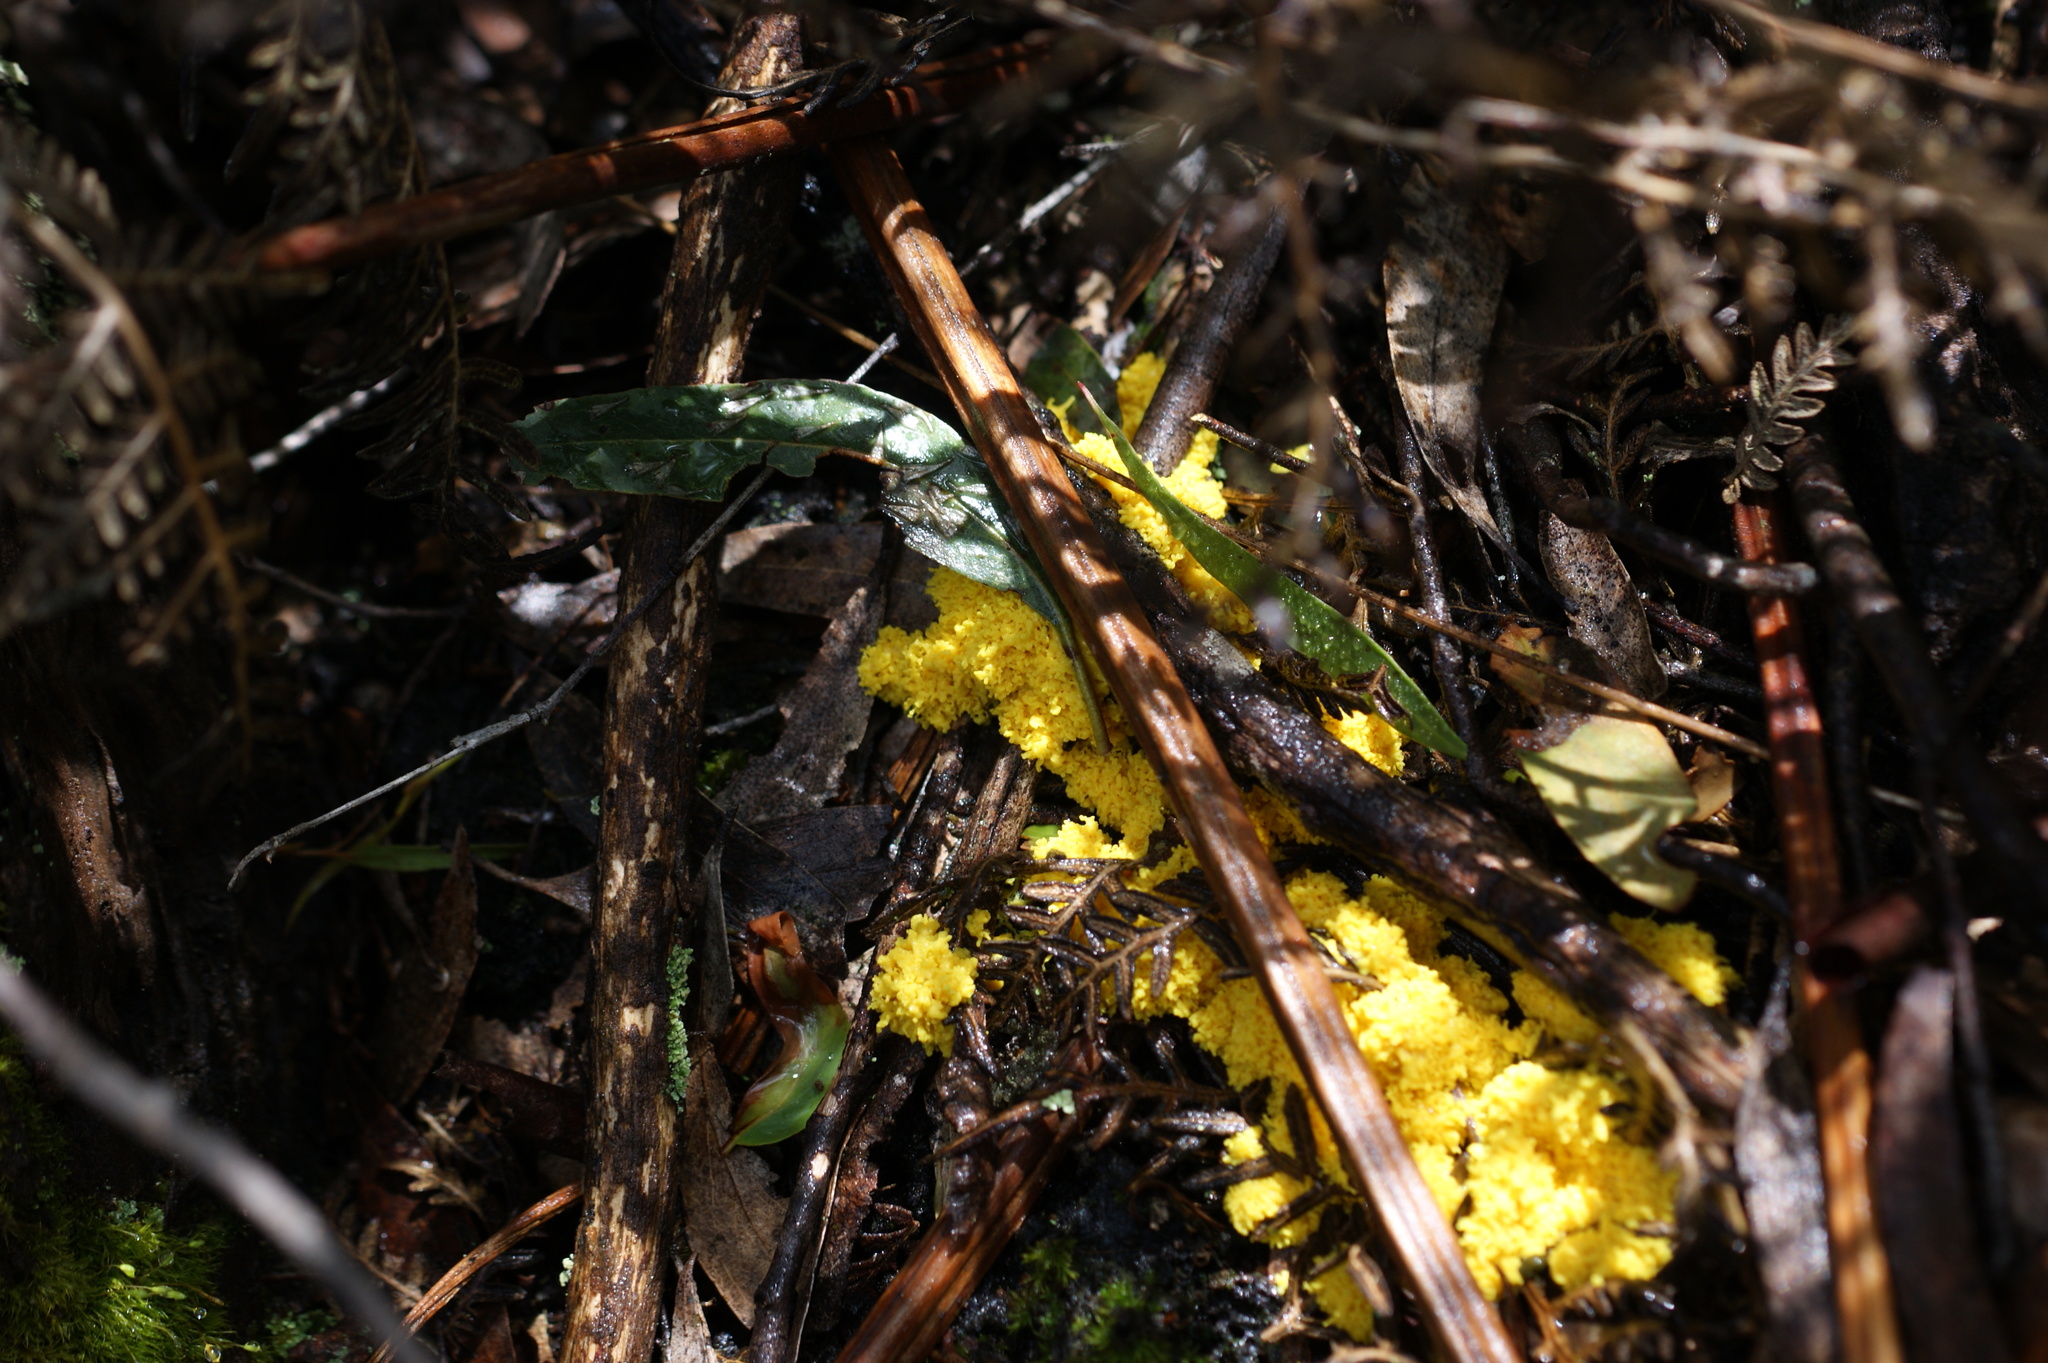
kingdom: Protozoa
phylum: Mycetozoa
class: Myxomycetes
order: Physarales
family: Physaraceae
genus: Fuligo
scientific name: Fuligo septica
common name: Dog vomit slime mold
